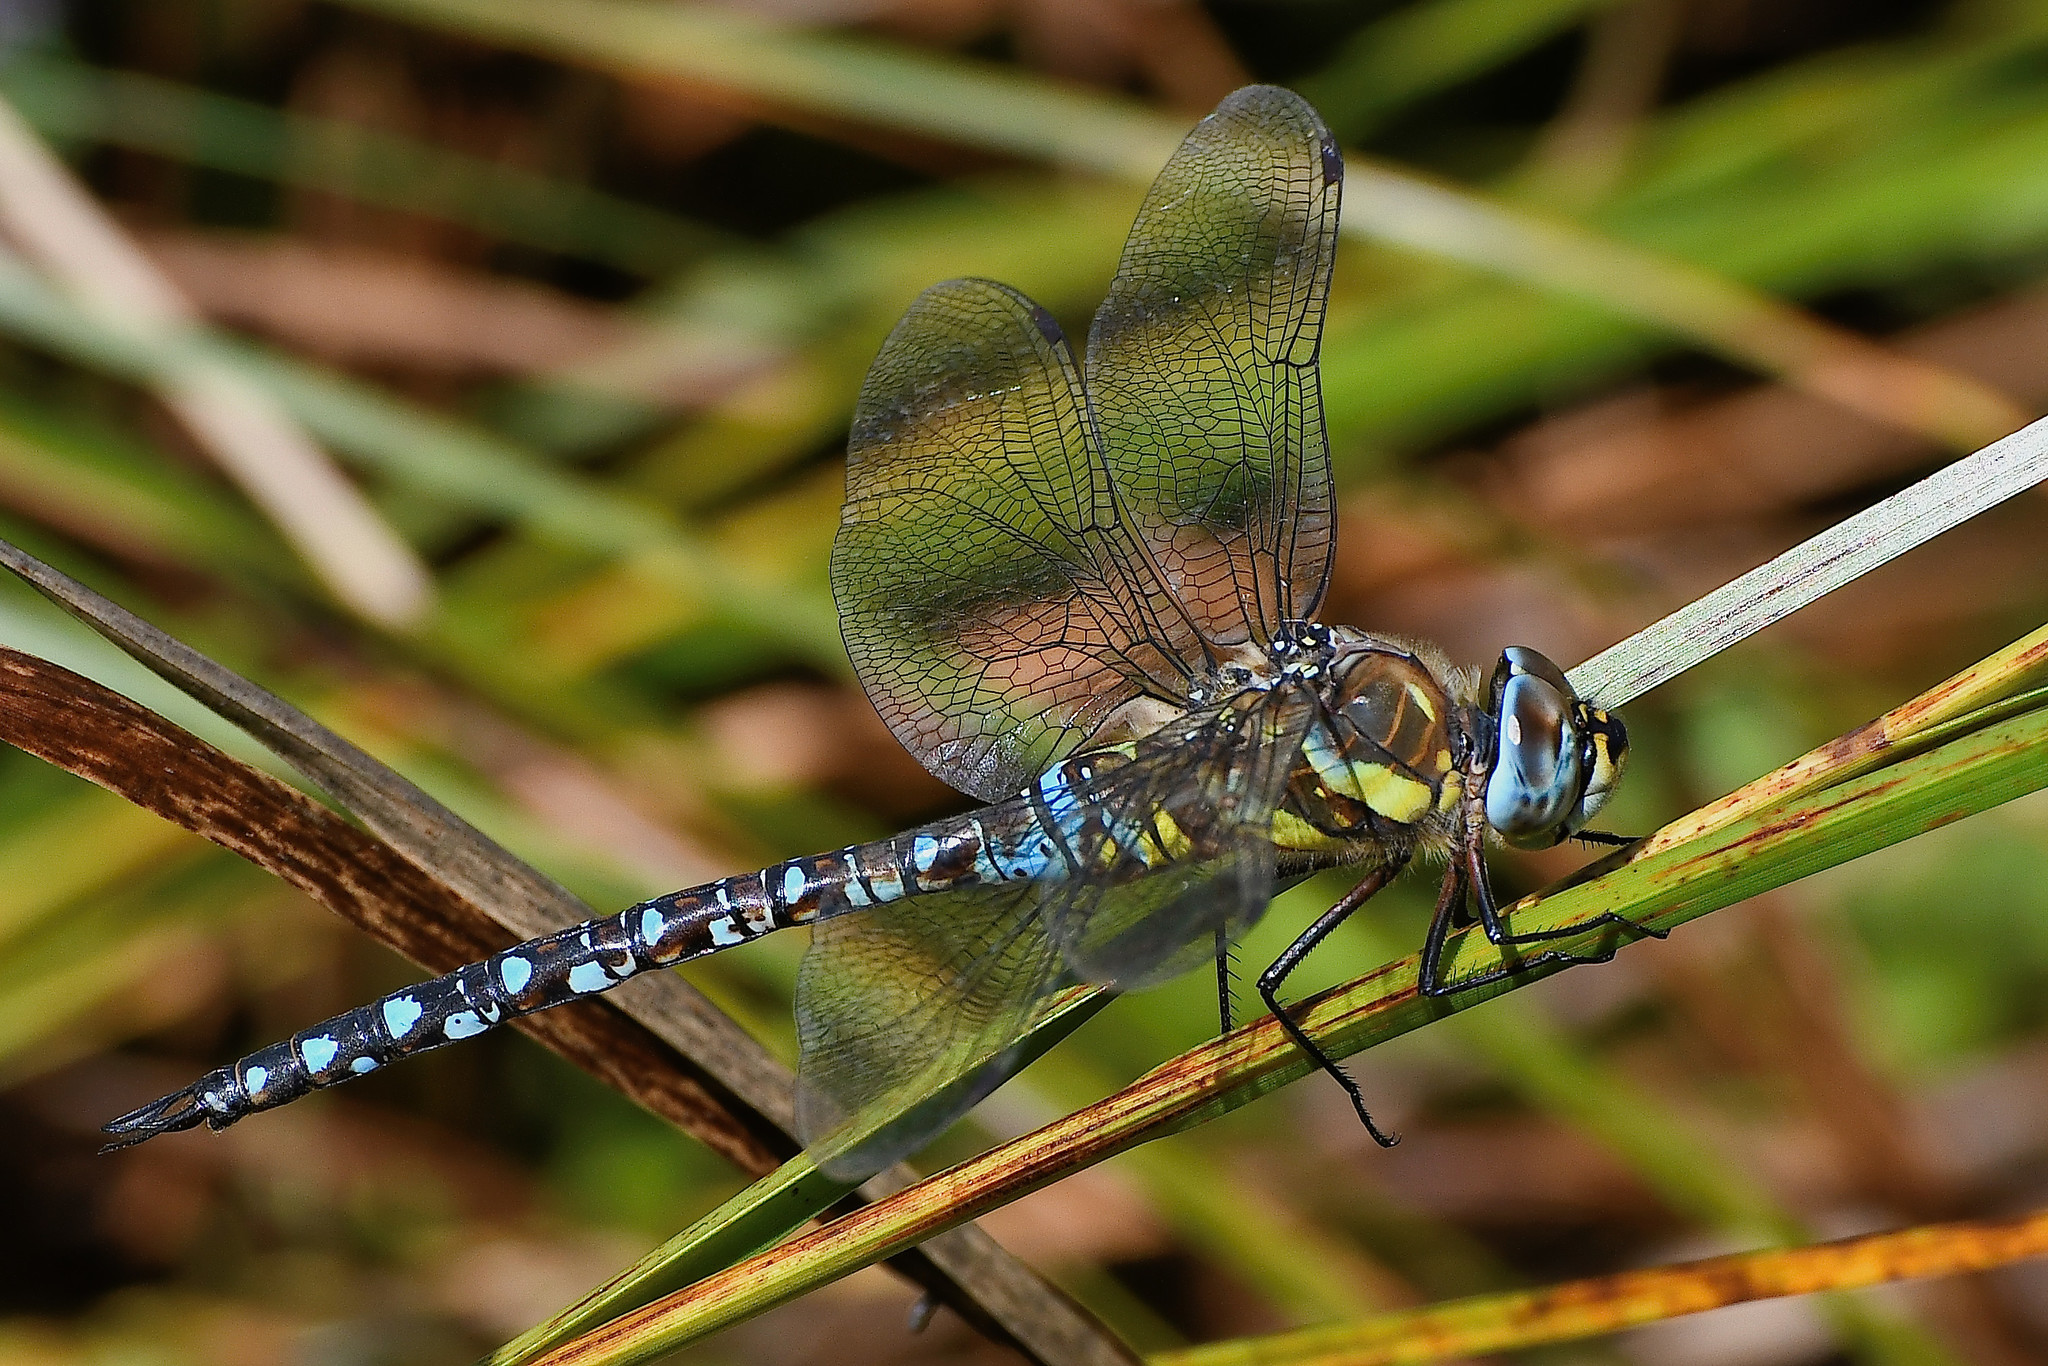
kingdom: Animalia
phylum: Arthropoda
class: Insecta
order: Odonata
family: Aeshnidae
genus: Aeshna
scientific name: Aeshna mixta
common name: Migrant hawker
